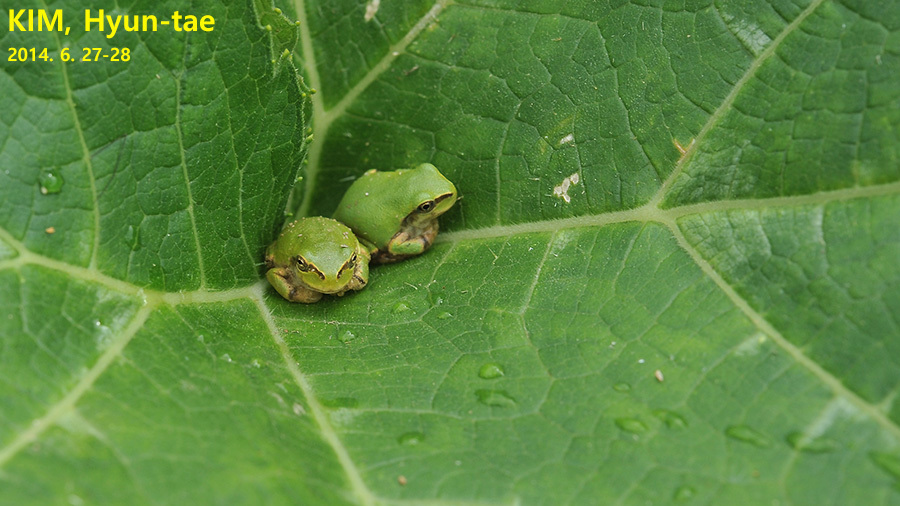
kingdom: Animalia
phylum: Chordata
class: Amphibia
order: Anura
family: Hylidae
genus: Dryophytes
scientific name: Dryophytes japonicus
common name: Japanese treefrog
